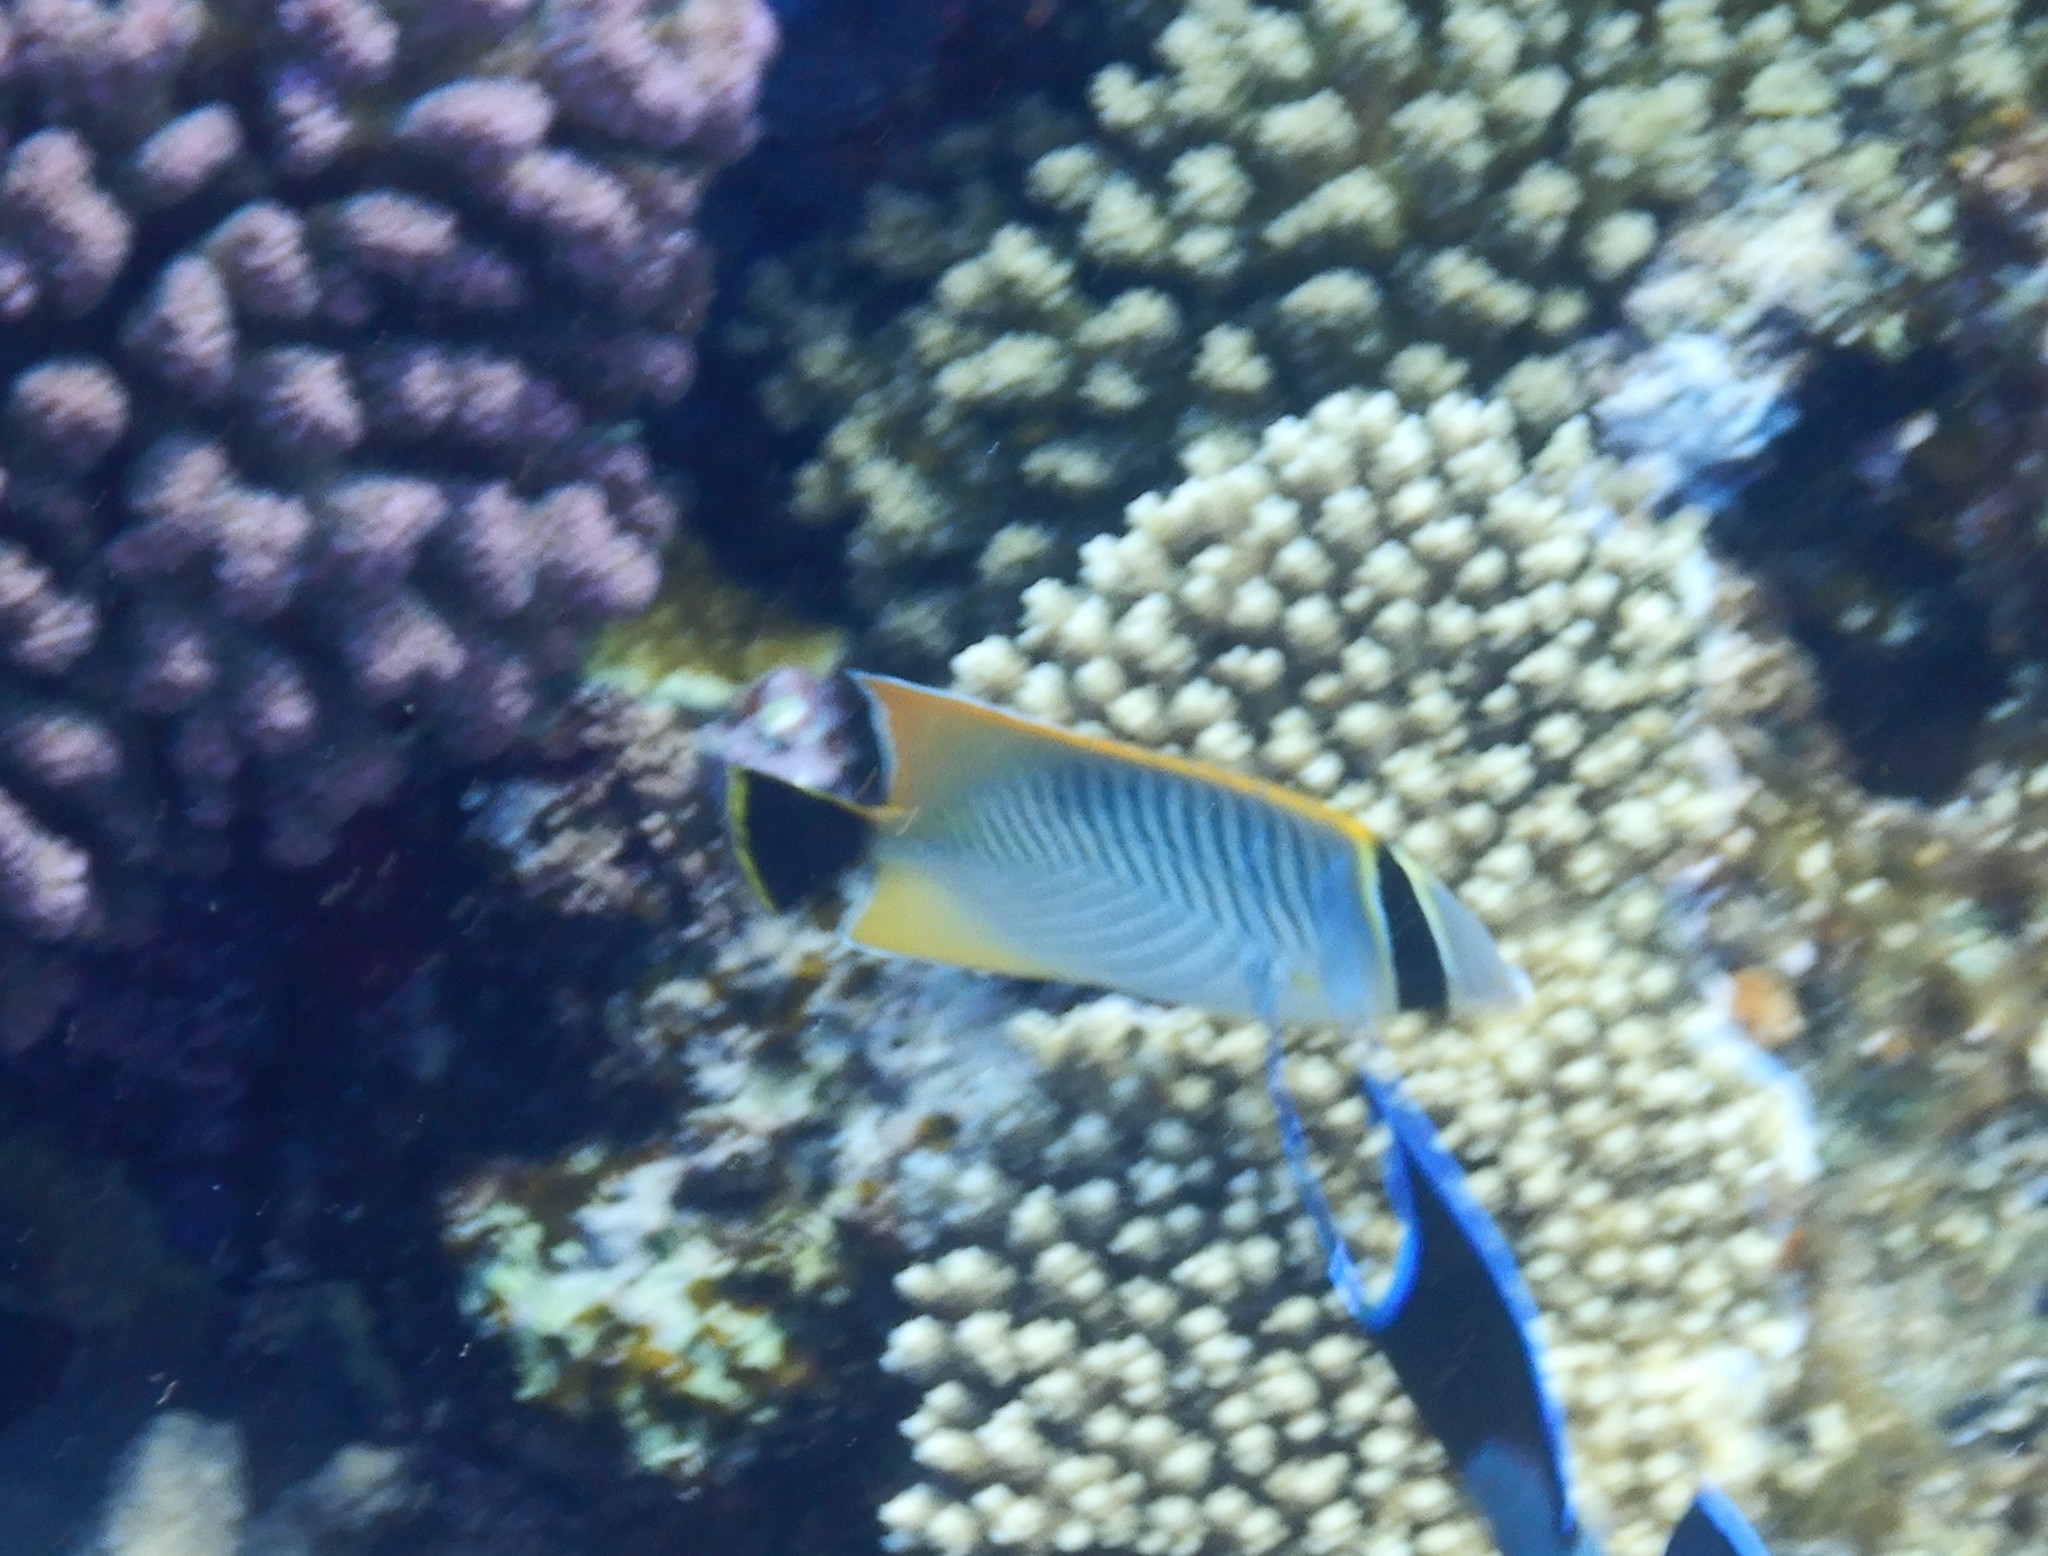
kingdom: Animalia
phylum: Chordata
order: Perciformes
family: Chaetodontidae
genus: Chaetodon
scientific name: Chaetodon trifascialis
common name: Chevroned butterflyfish
